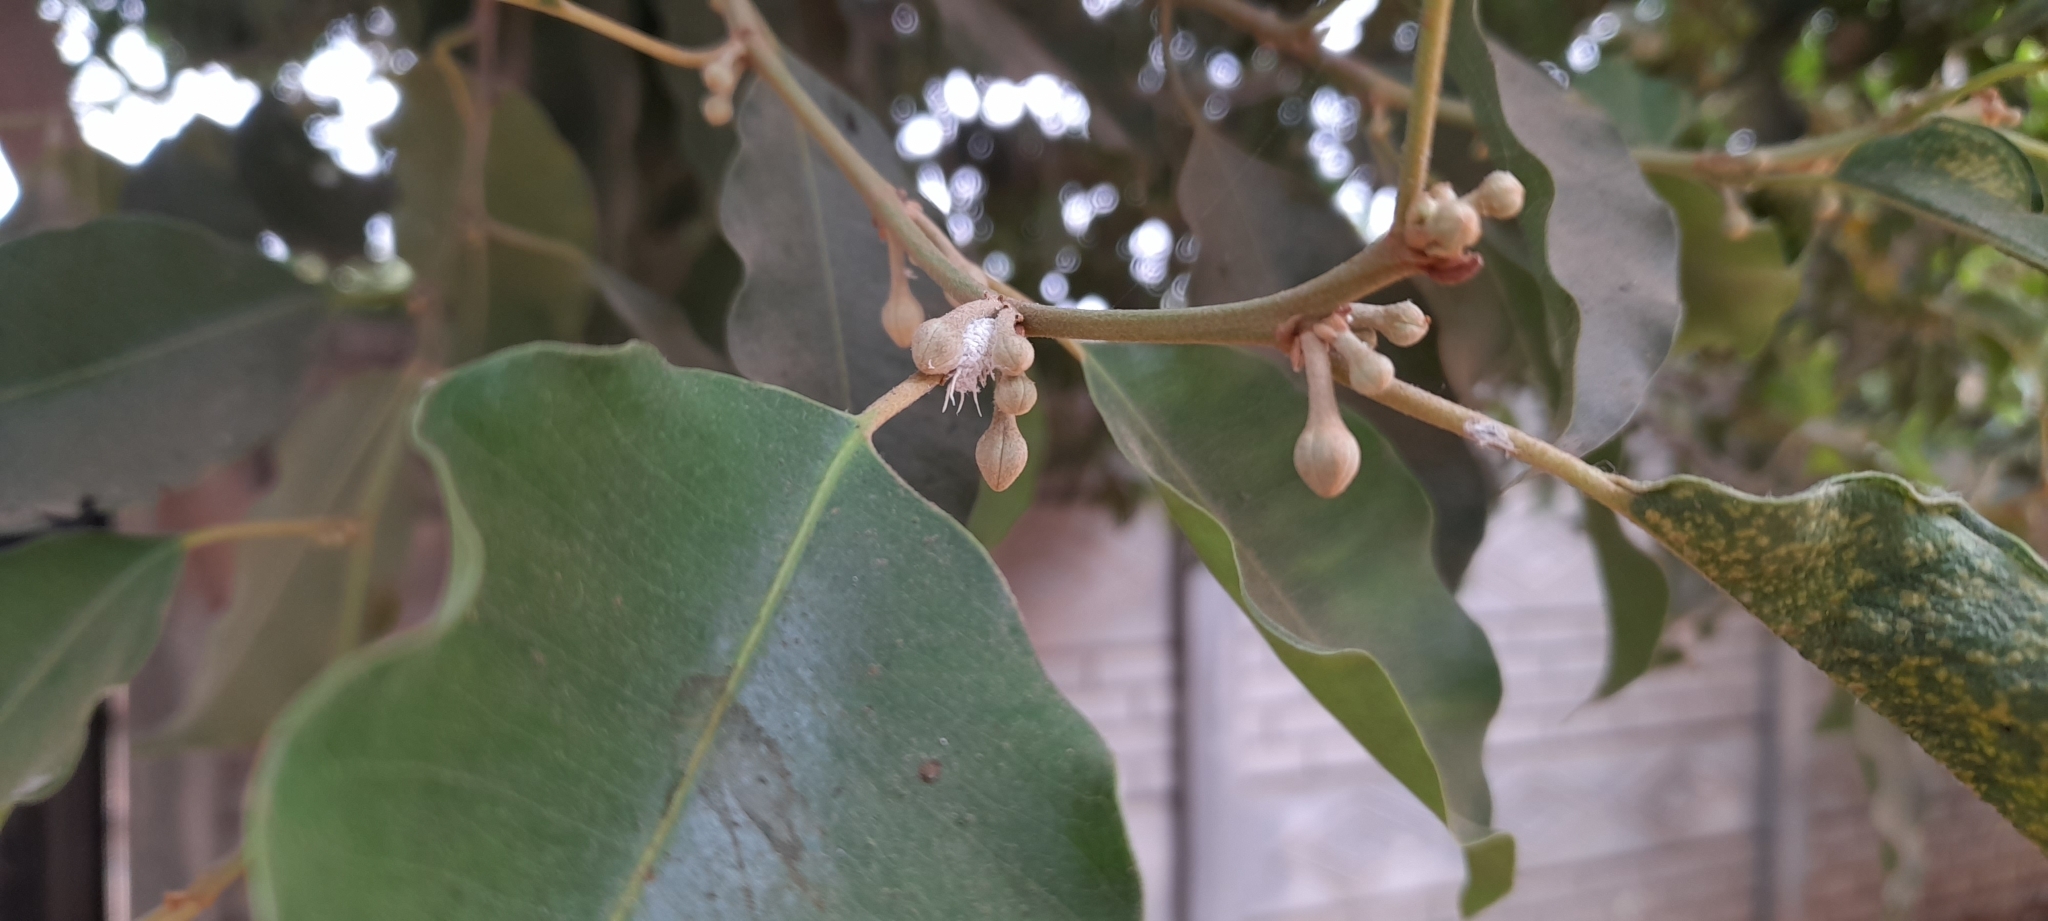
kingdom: Plantae
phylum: Tracheophyta
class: Magnoliopsida
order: Ericales
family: Sapotaceae
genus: Mimusops
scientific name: Mimusops elengi
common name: Spanish cherry
